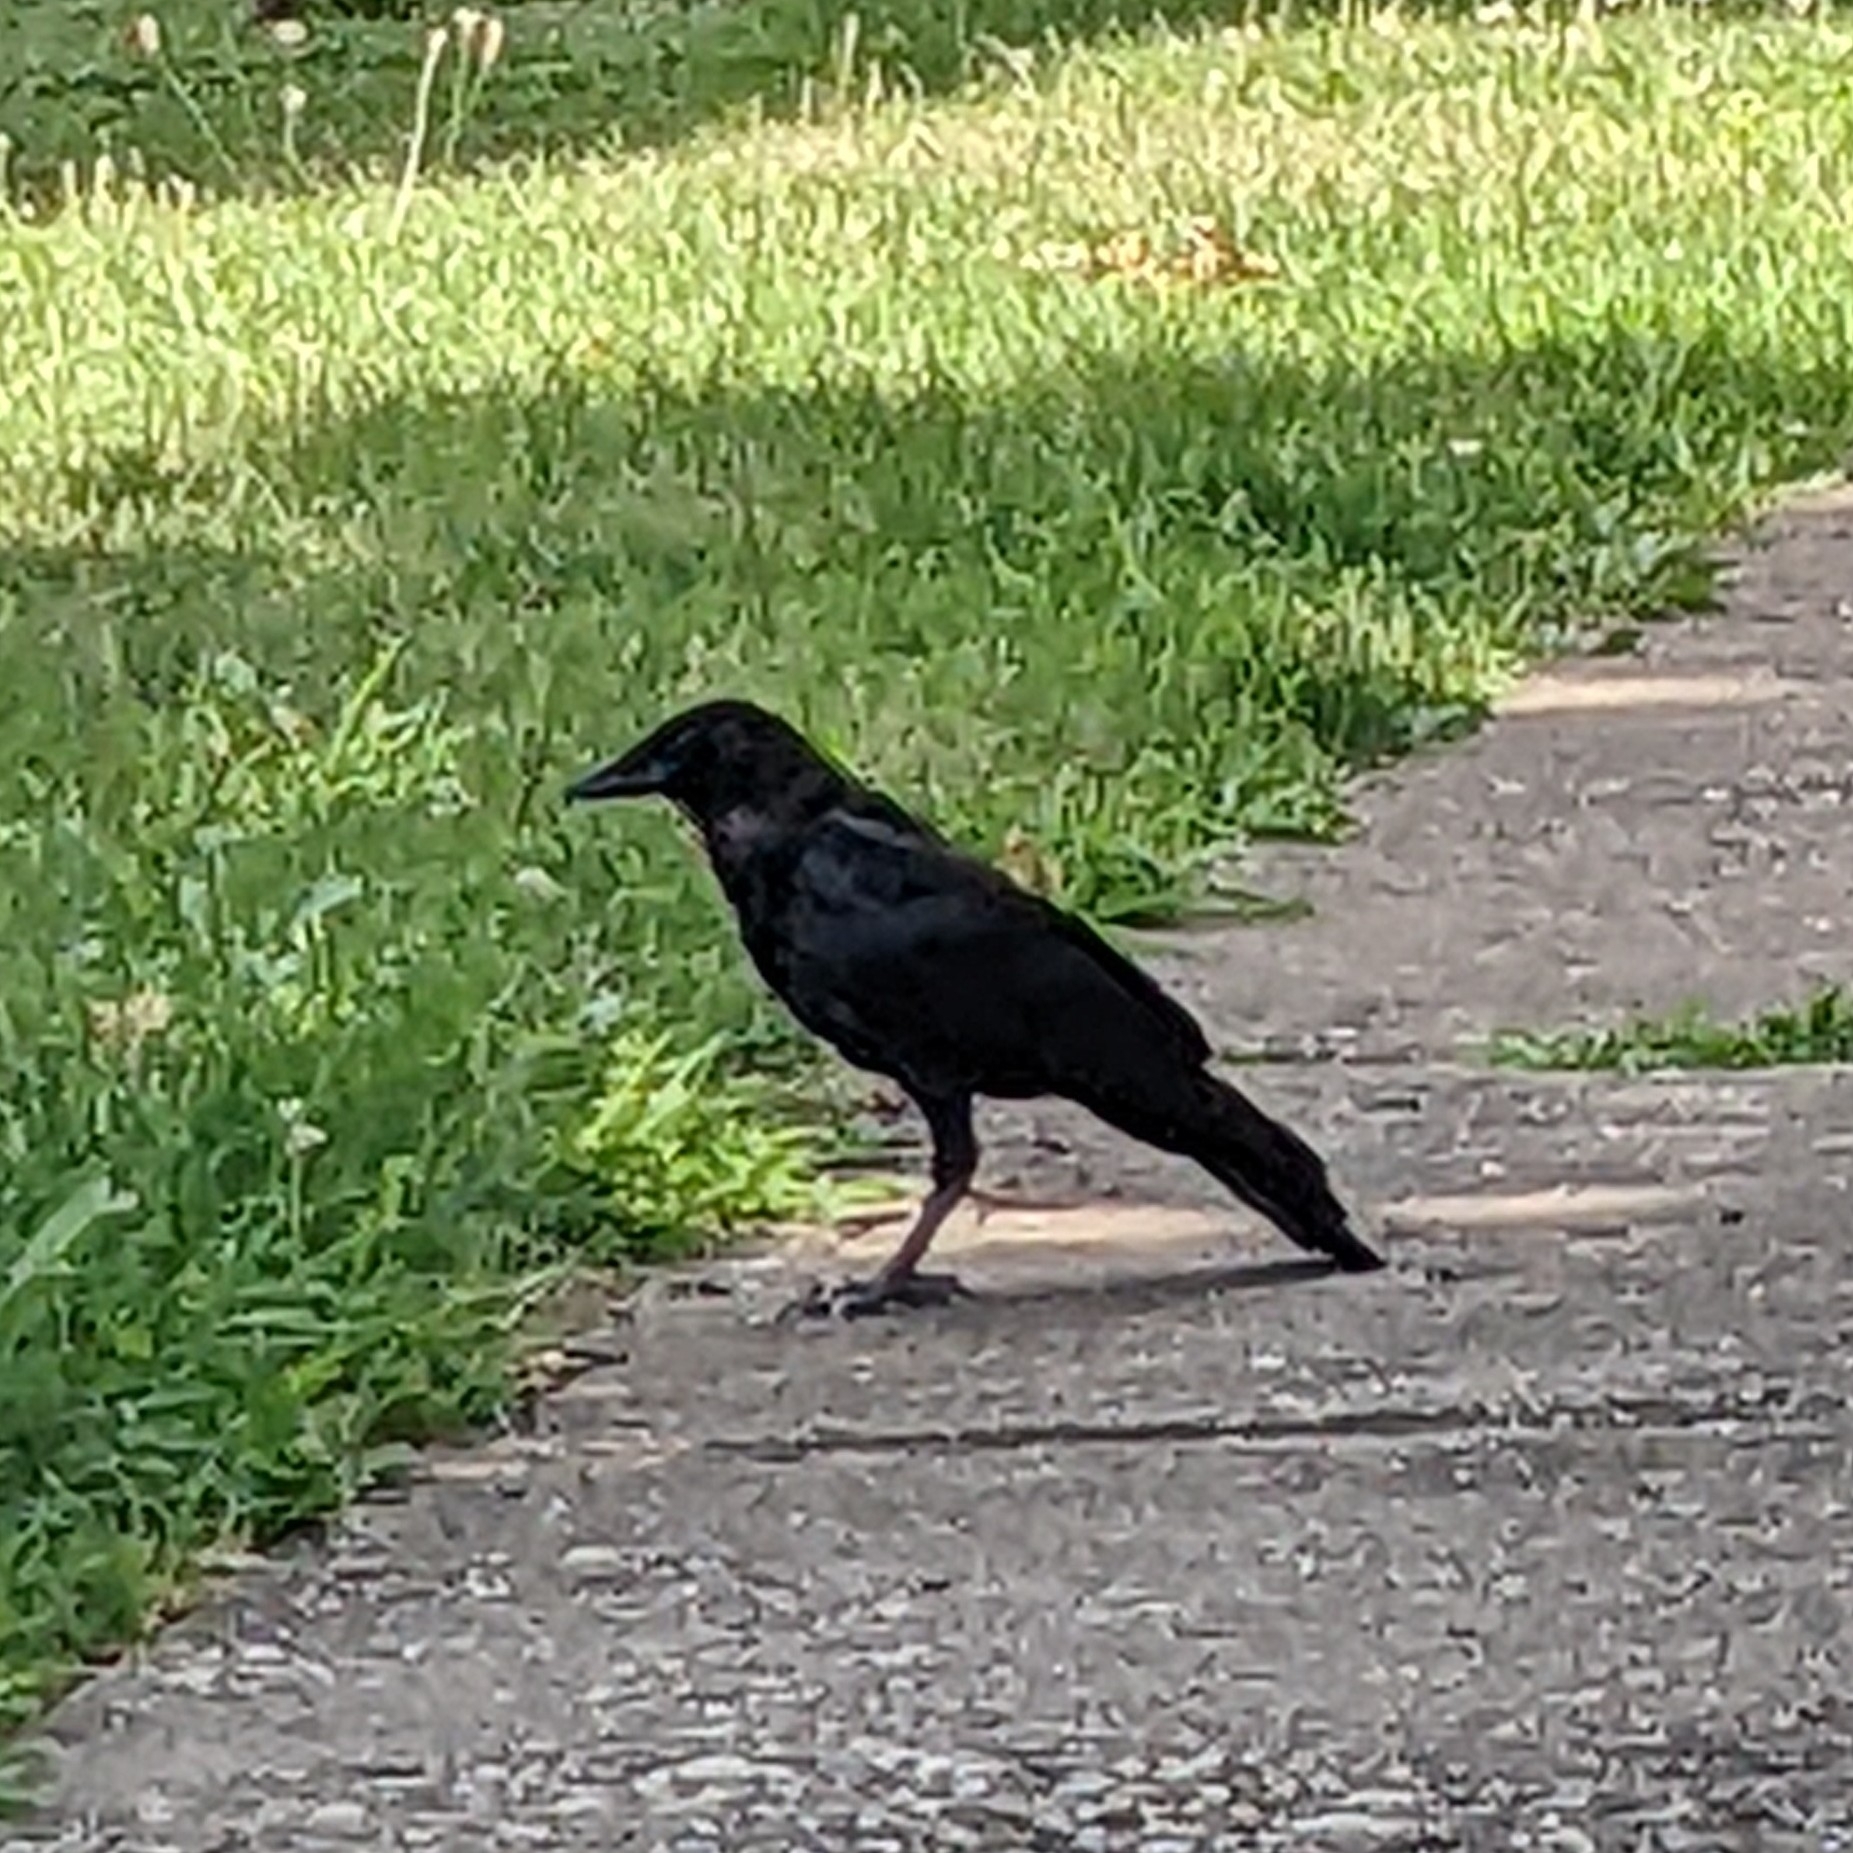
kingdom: Animalia
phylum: Chordata
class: Aves
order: Passeriformes
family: Corvidae
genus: Corvus
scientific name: Corvus brachyrhynchos
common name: American crow
